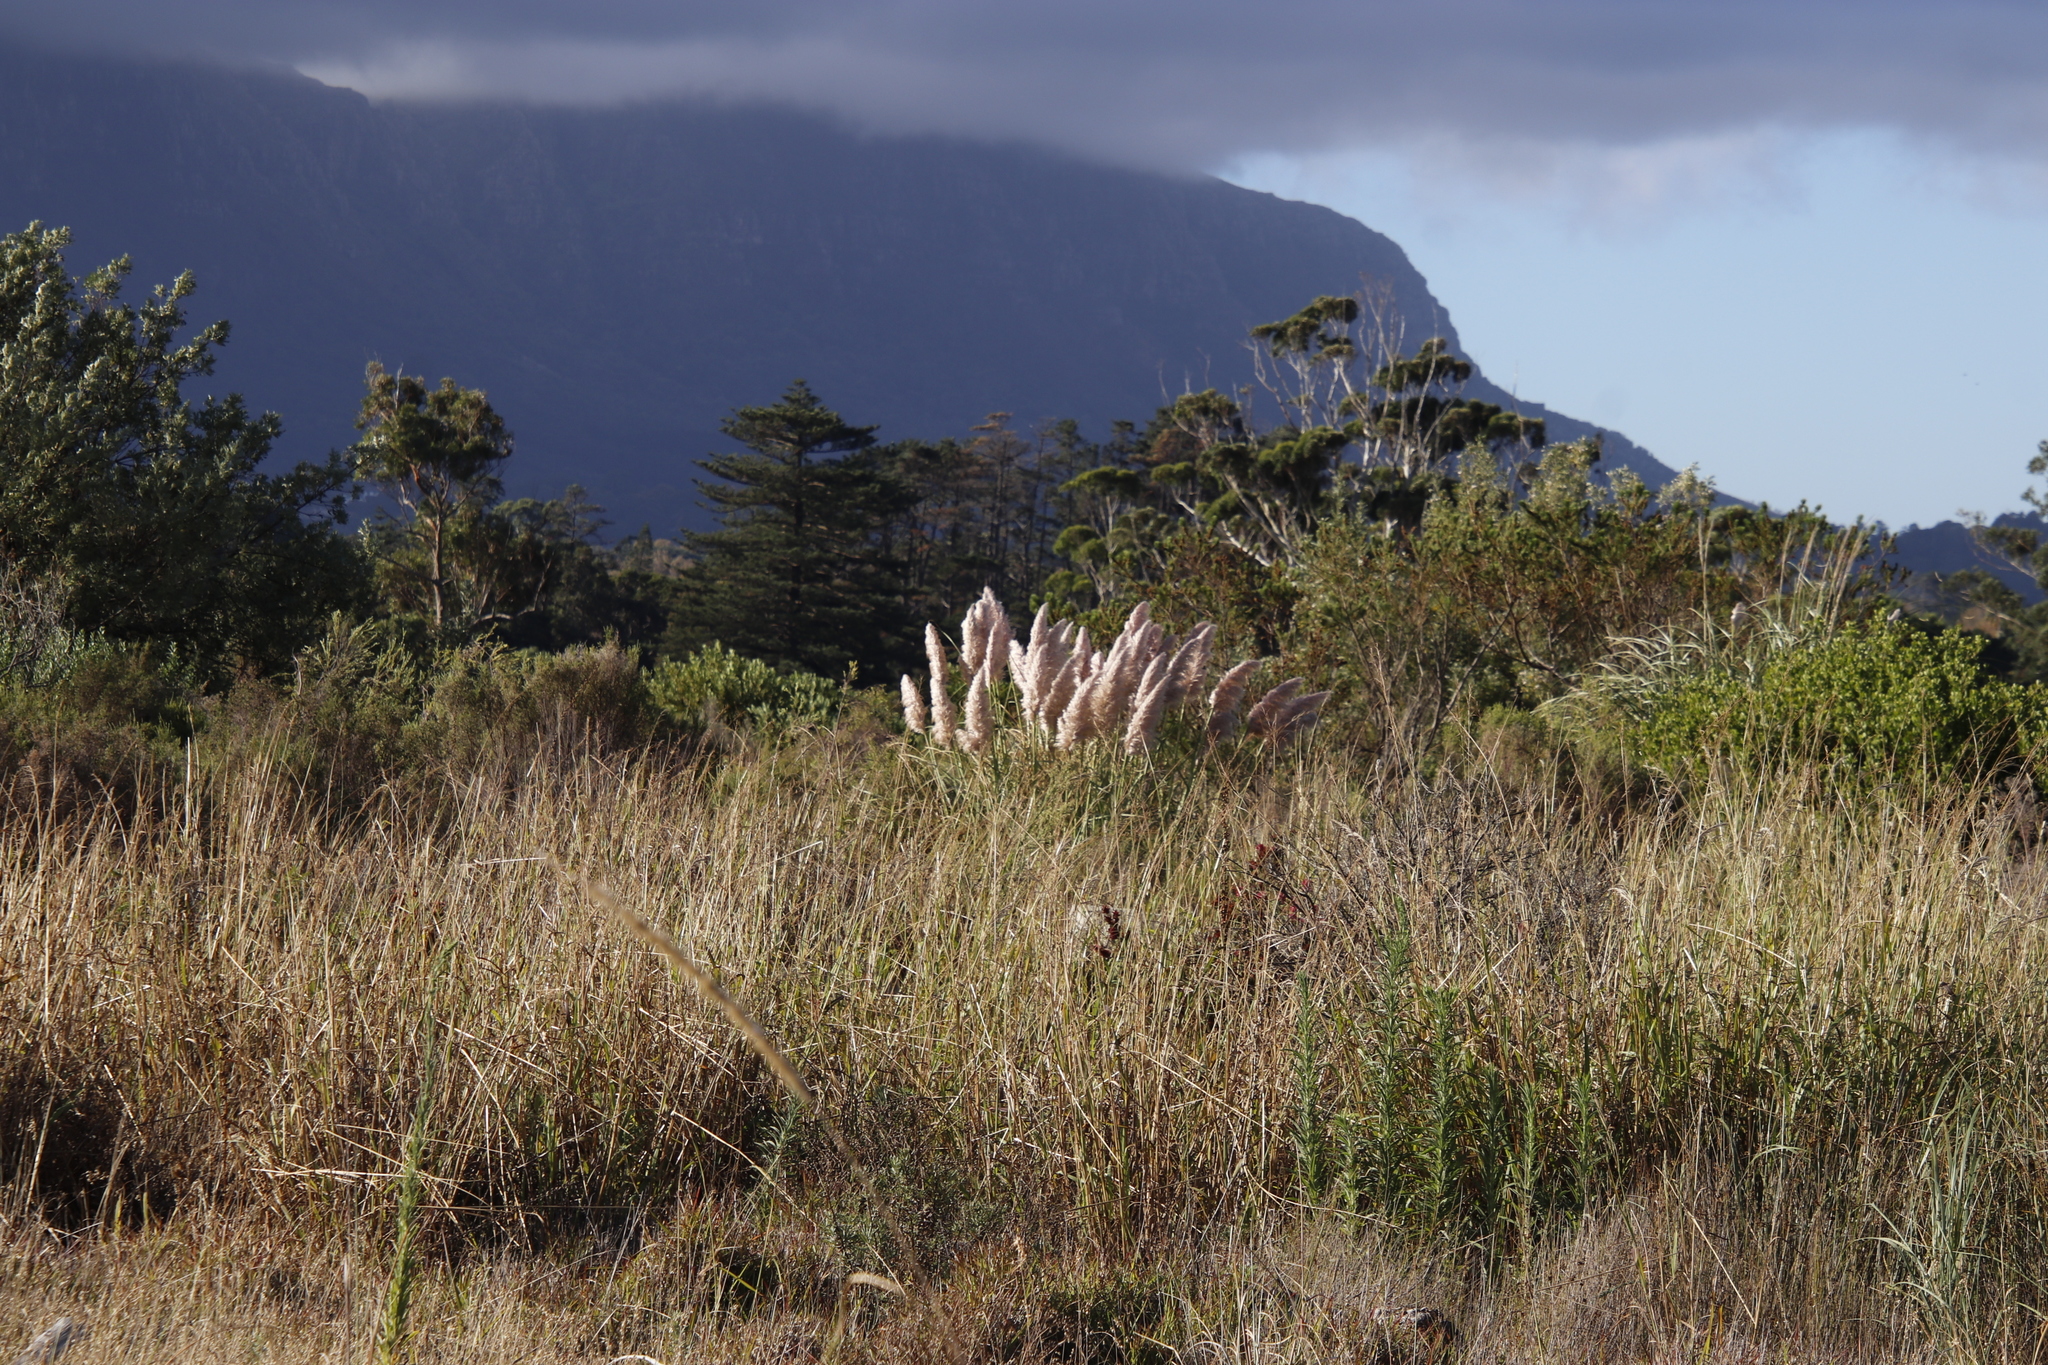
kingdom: Plantae
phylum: Tracheophyta
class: Liliopsida
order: Poales
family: Poaceae
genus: Cortaderia
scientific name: Cortaderia selloana
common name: Uruguayan pampas grass
